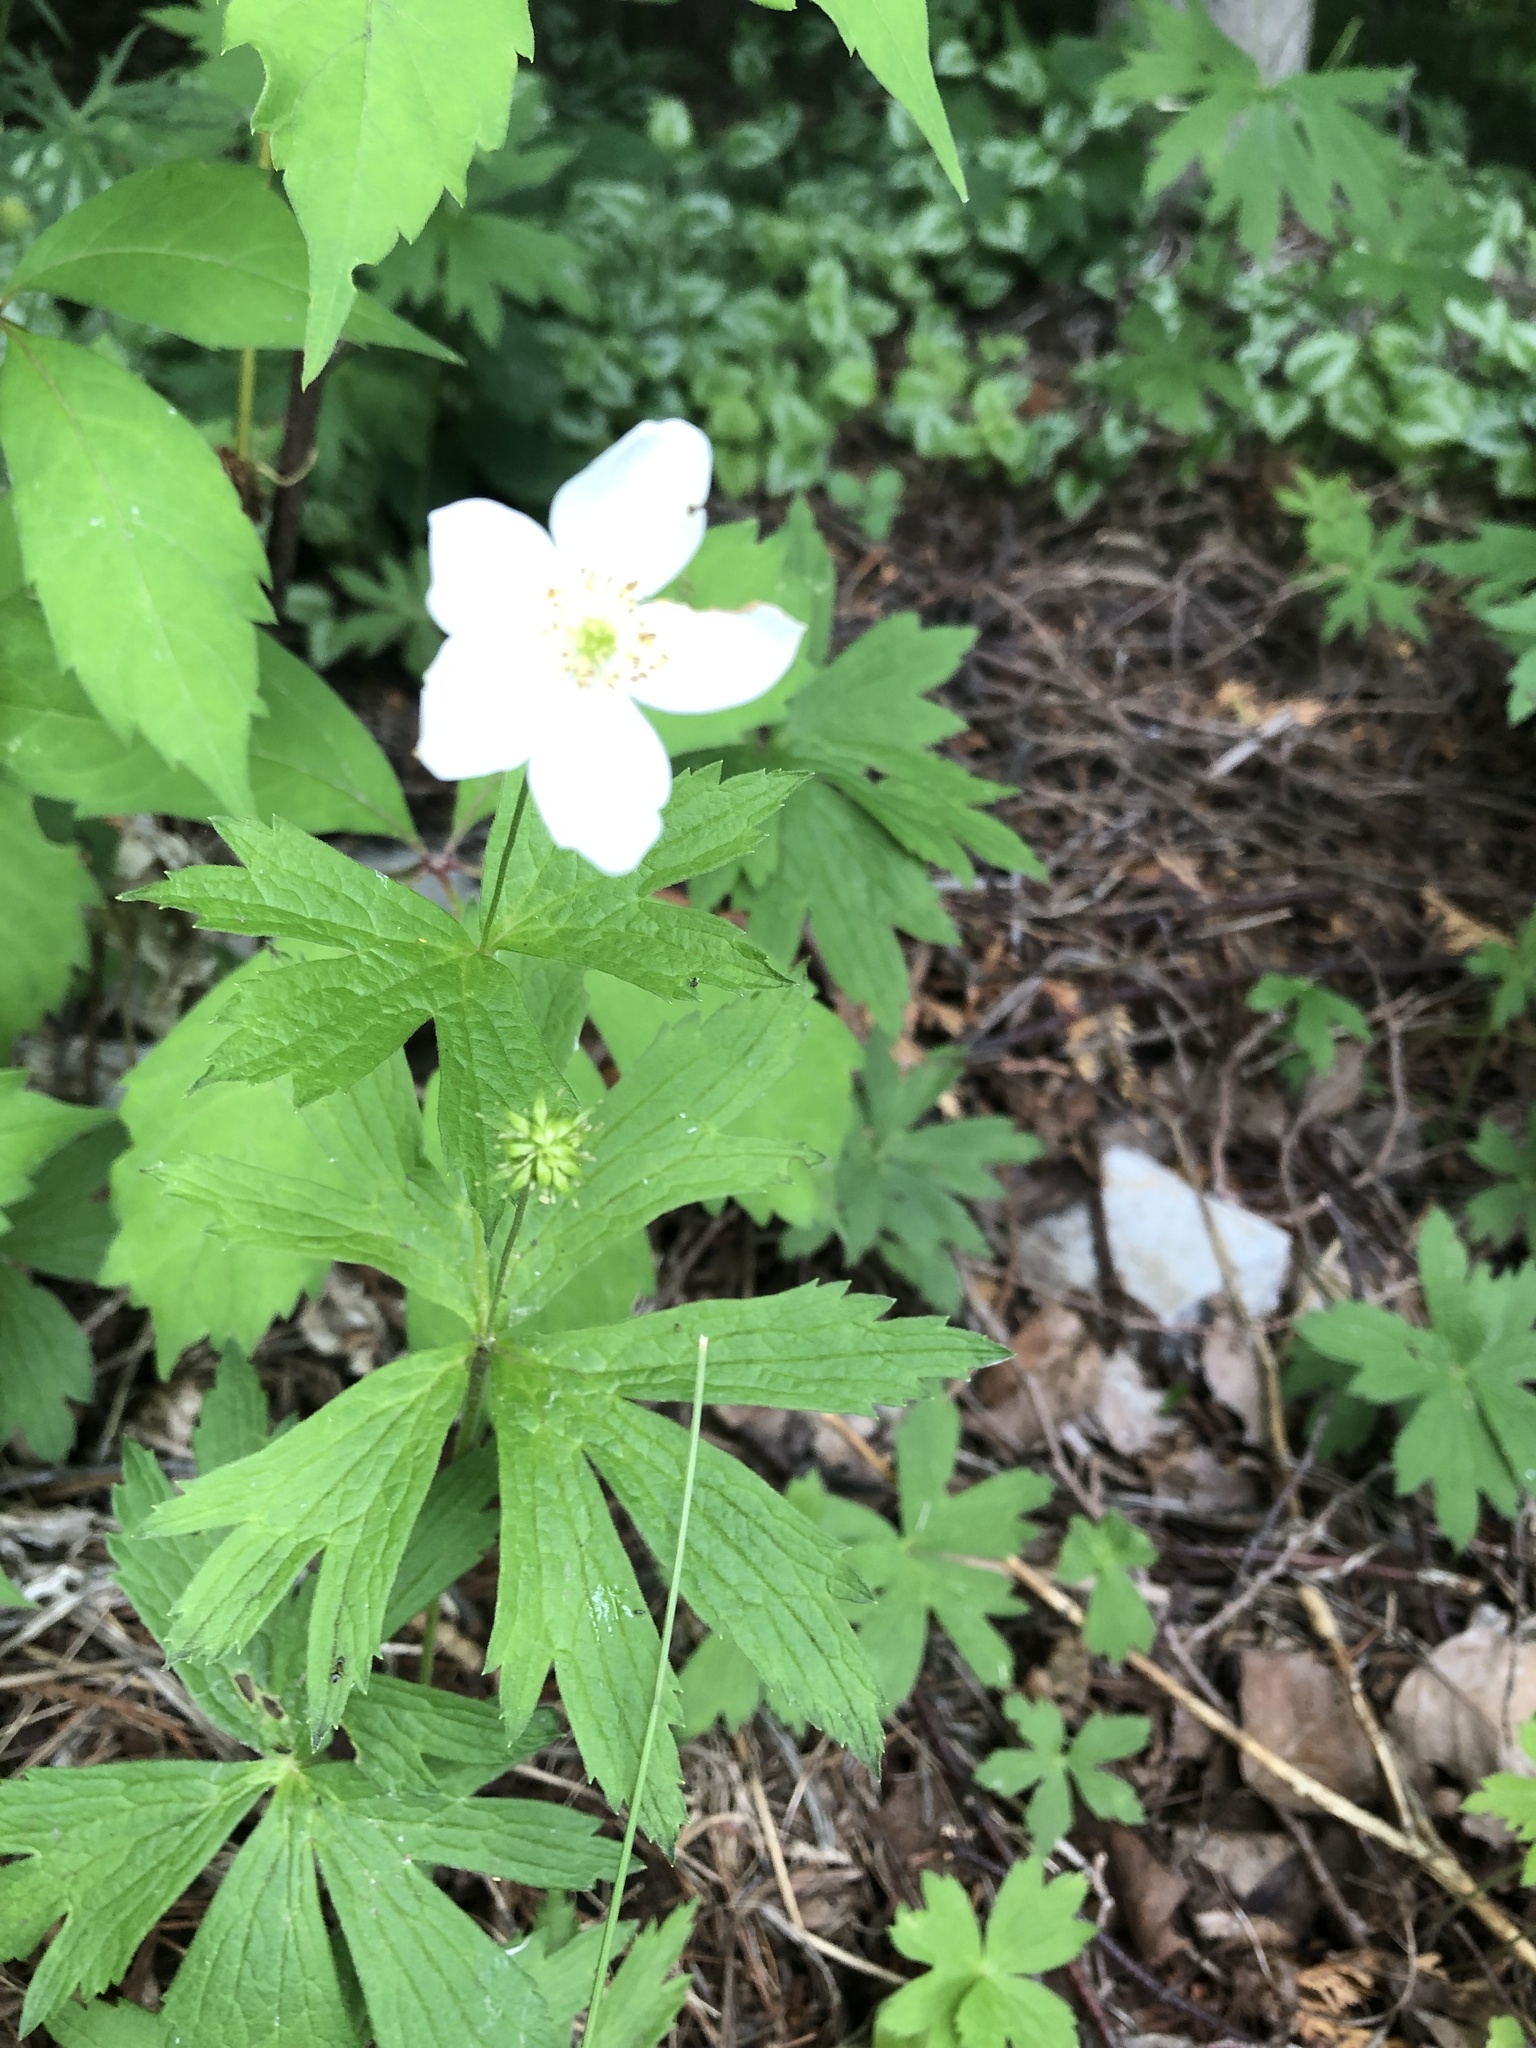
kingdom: Plantae
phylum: Tracheophyta
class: Magnoliopsida
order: Ranunculales
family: Ranunculaceae
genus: Anemonastrum
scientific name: Anemonastrum canadense
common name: Canada anemone
